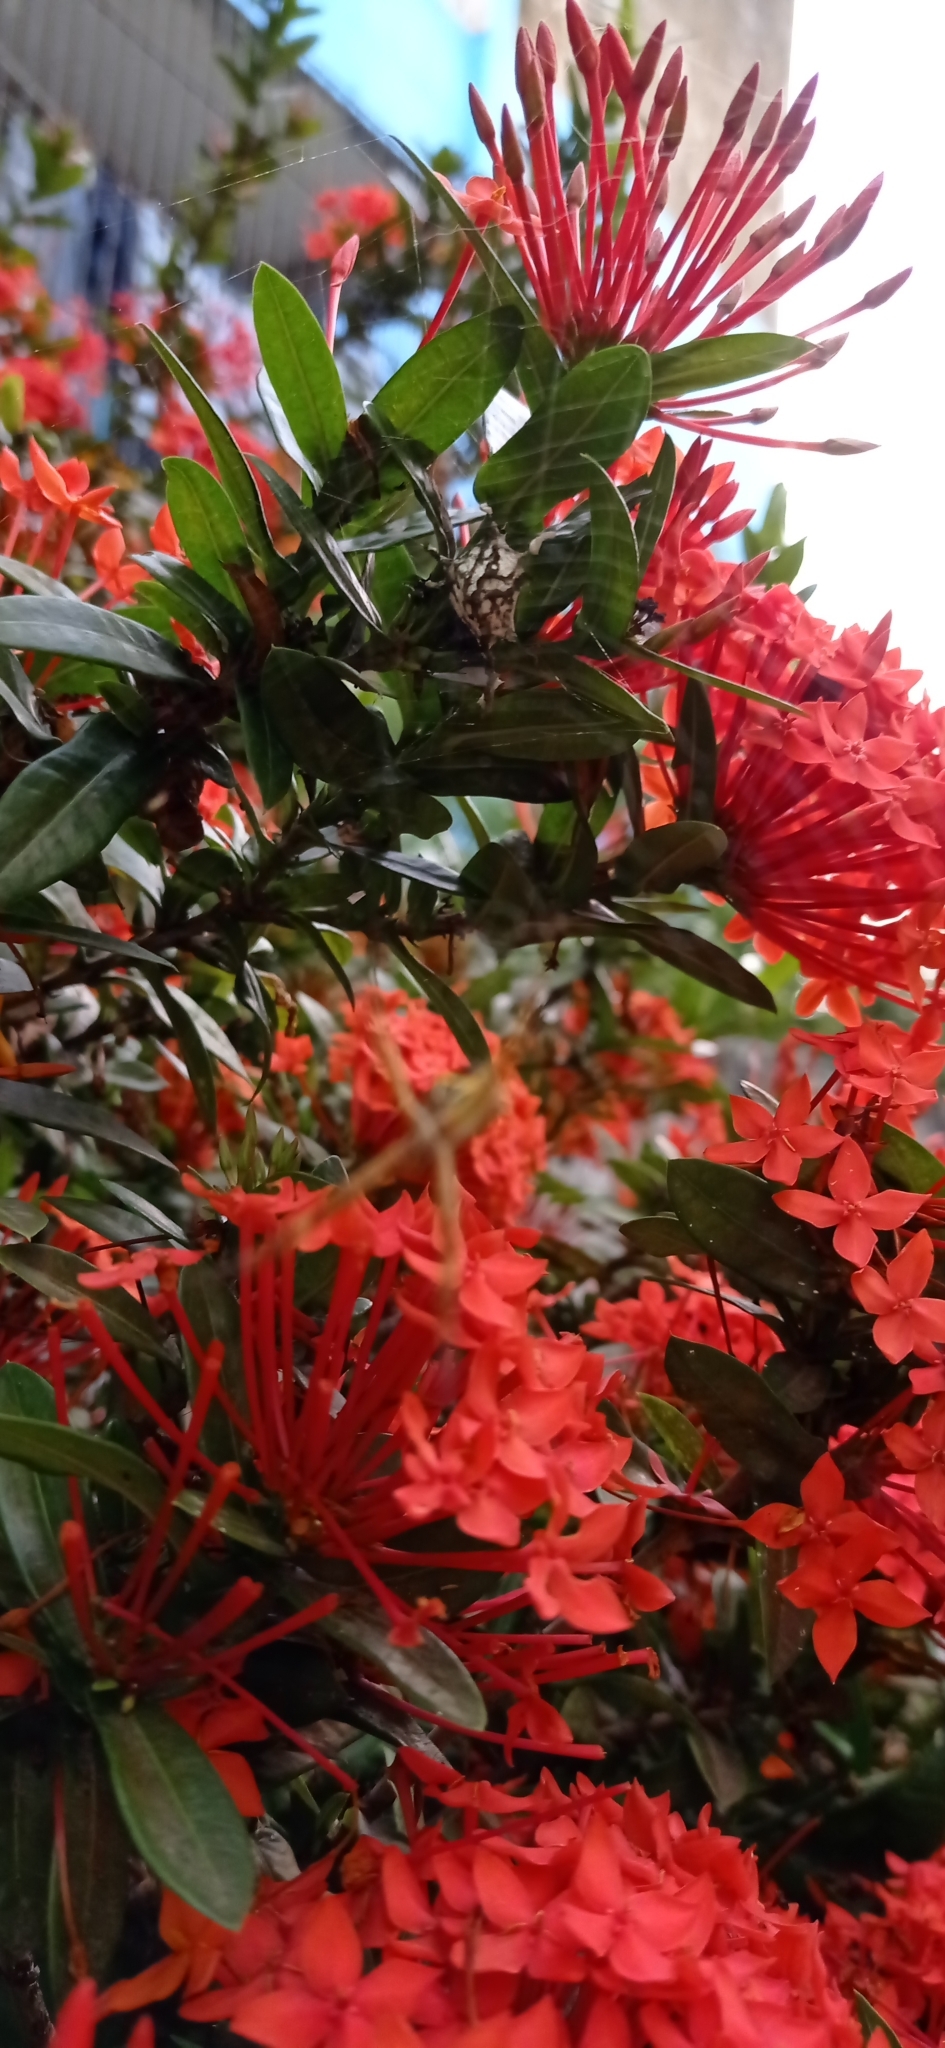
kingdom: Animalia
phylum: Arthropoda
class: Arachnida
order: Araneae
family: Araneidae
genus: Argiope
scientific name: Argiope argentata
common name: Orb weavers
